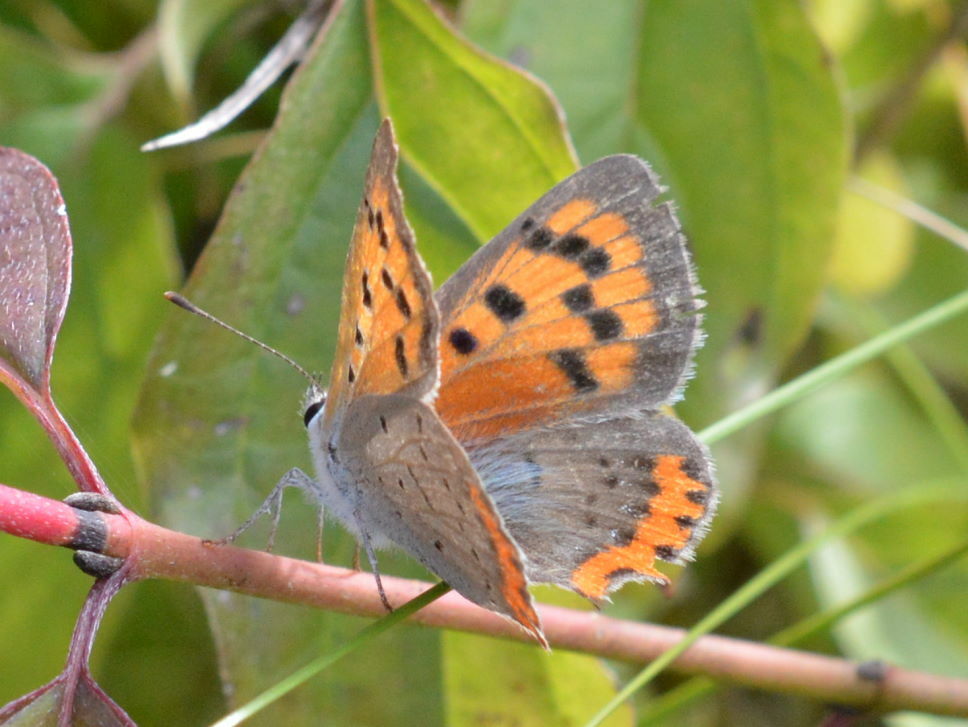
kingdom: Animalia
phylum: Arthropoda
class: Insecta
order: Lepidoptera
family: Lycaenidae
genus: Lycaena
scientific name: Lycaena phlaeas
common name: Small copper
